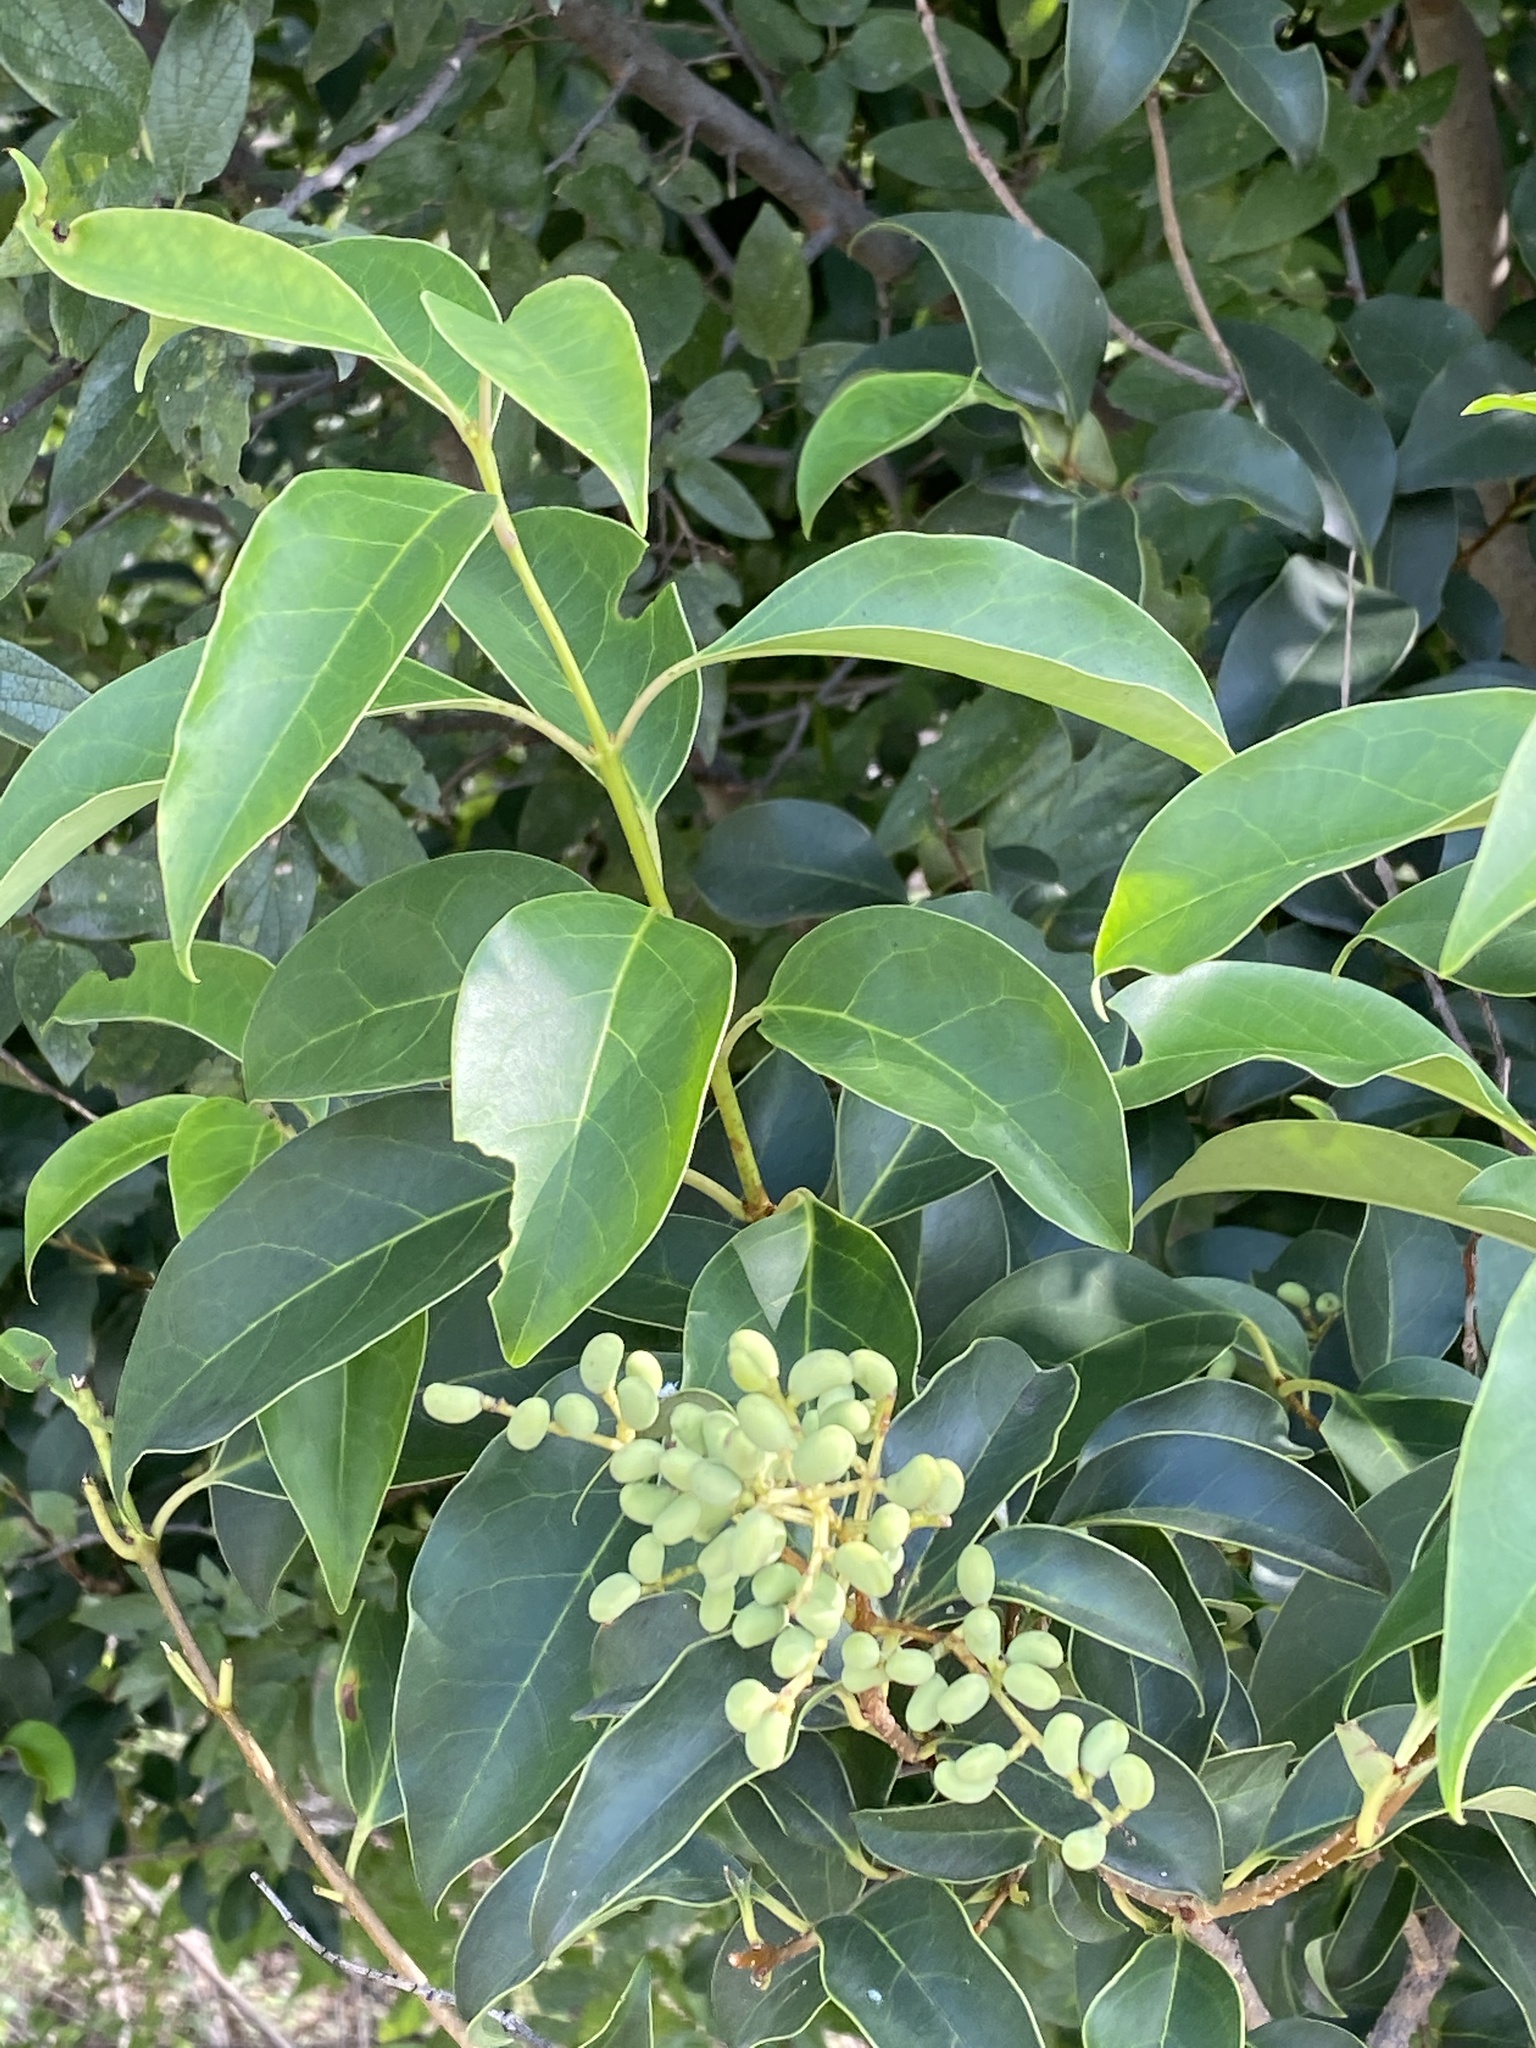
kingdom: Plantae
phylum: Tracheophyta
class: Magnoliopsida
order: Lamiales
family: Oleaceae
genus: Ligustrum
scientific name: Ligustrum lucidum
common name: Glossy privet
